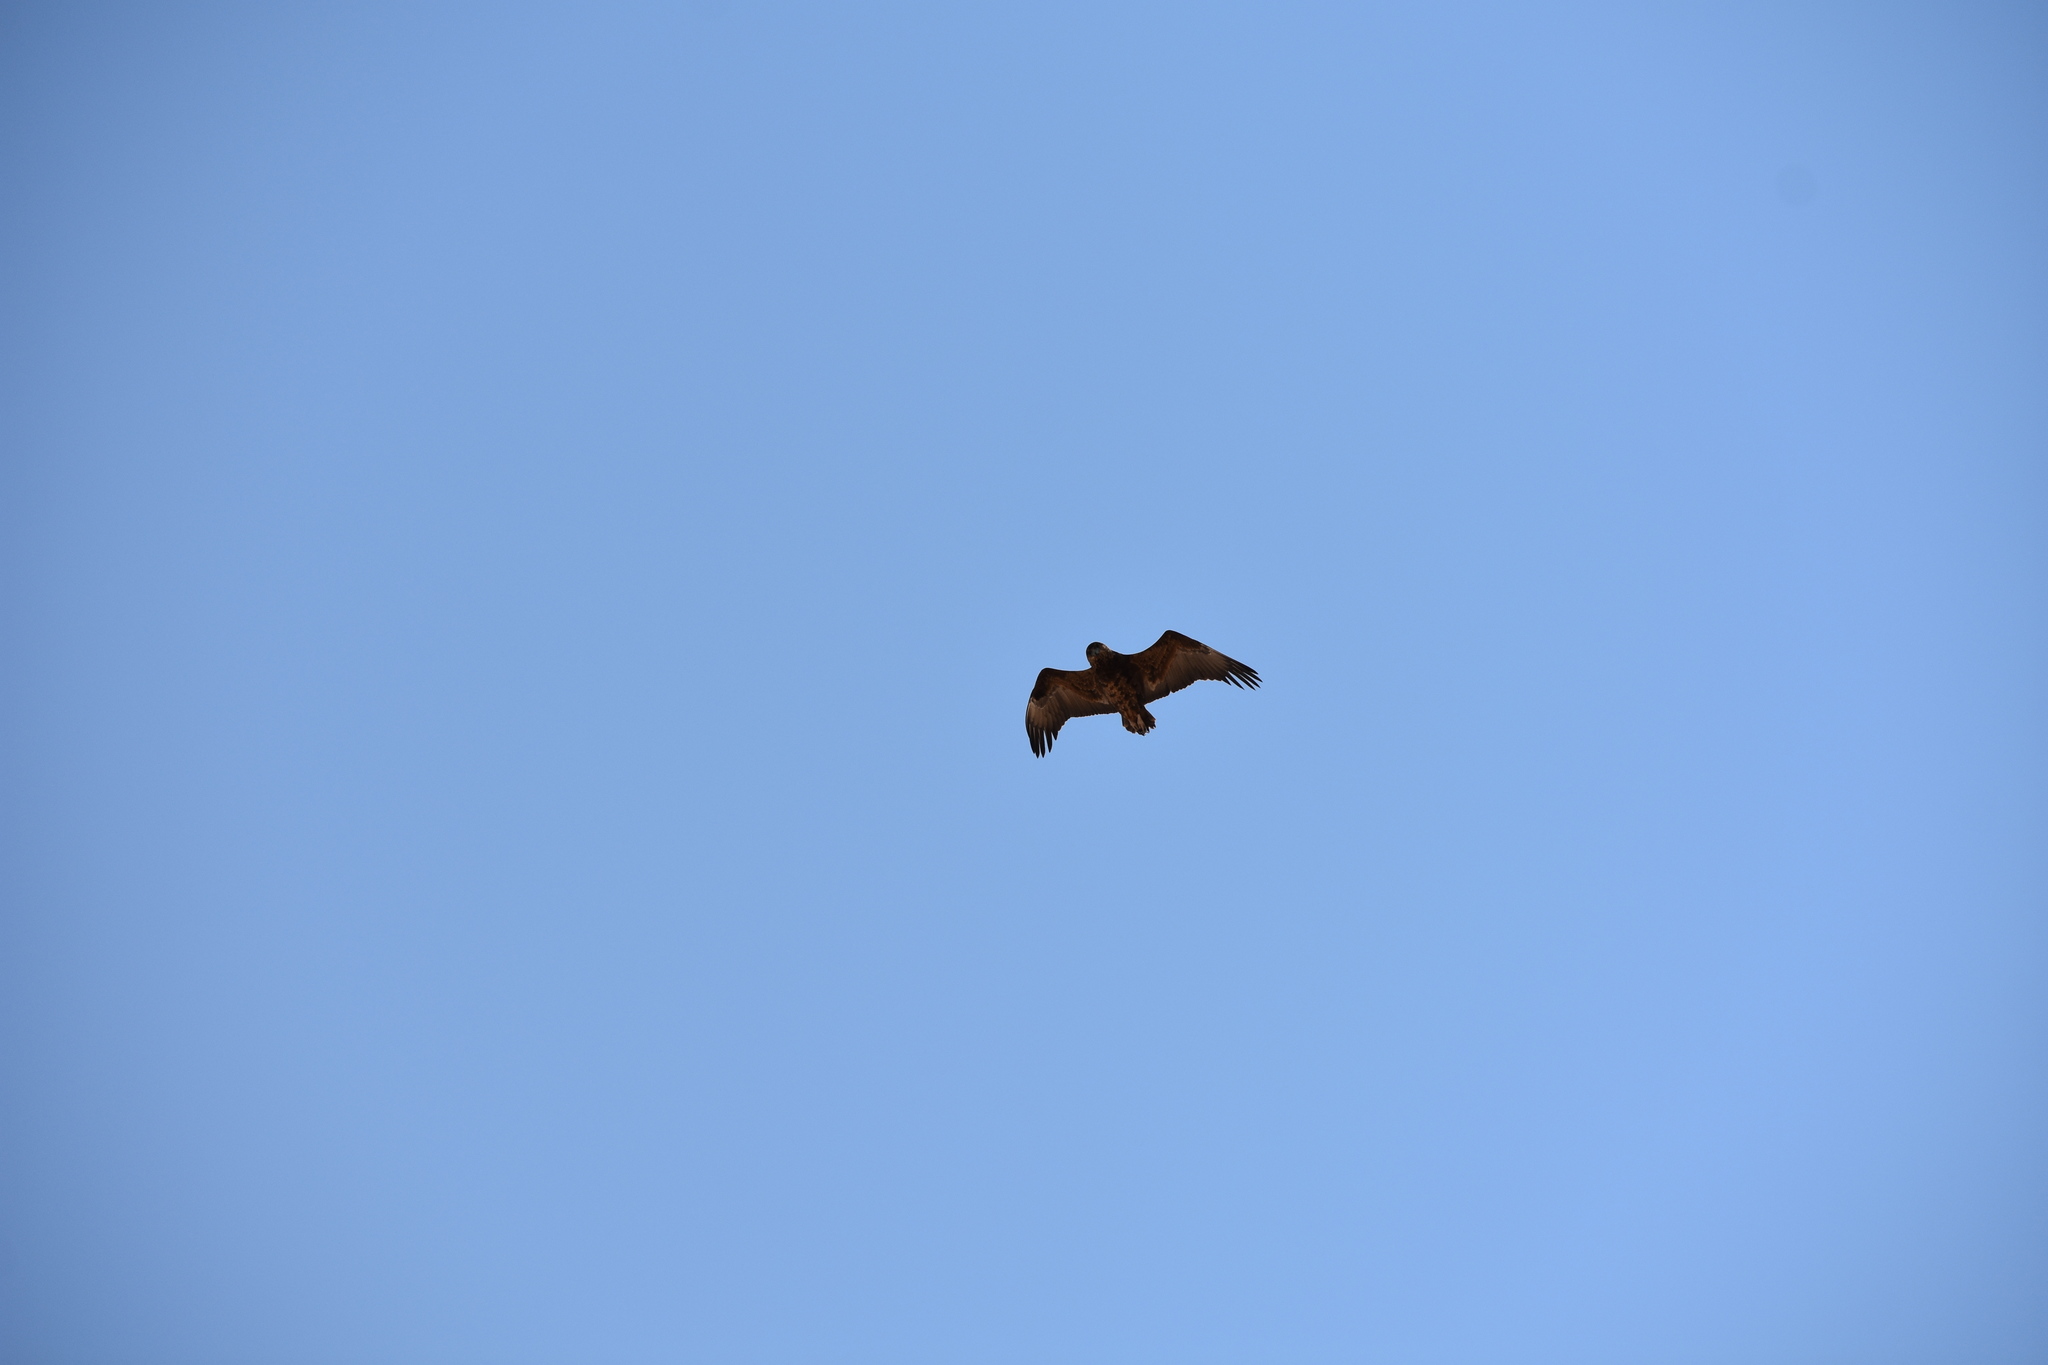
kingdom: Animalia
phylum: Chordata
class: Aves
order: Accipitriformes
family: Accipitridae
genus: Terathopius
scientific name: Terathopius ecaudatus
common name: Bateleur
